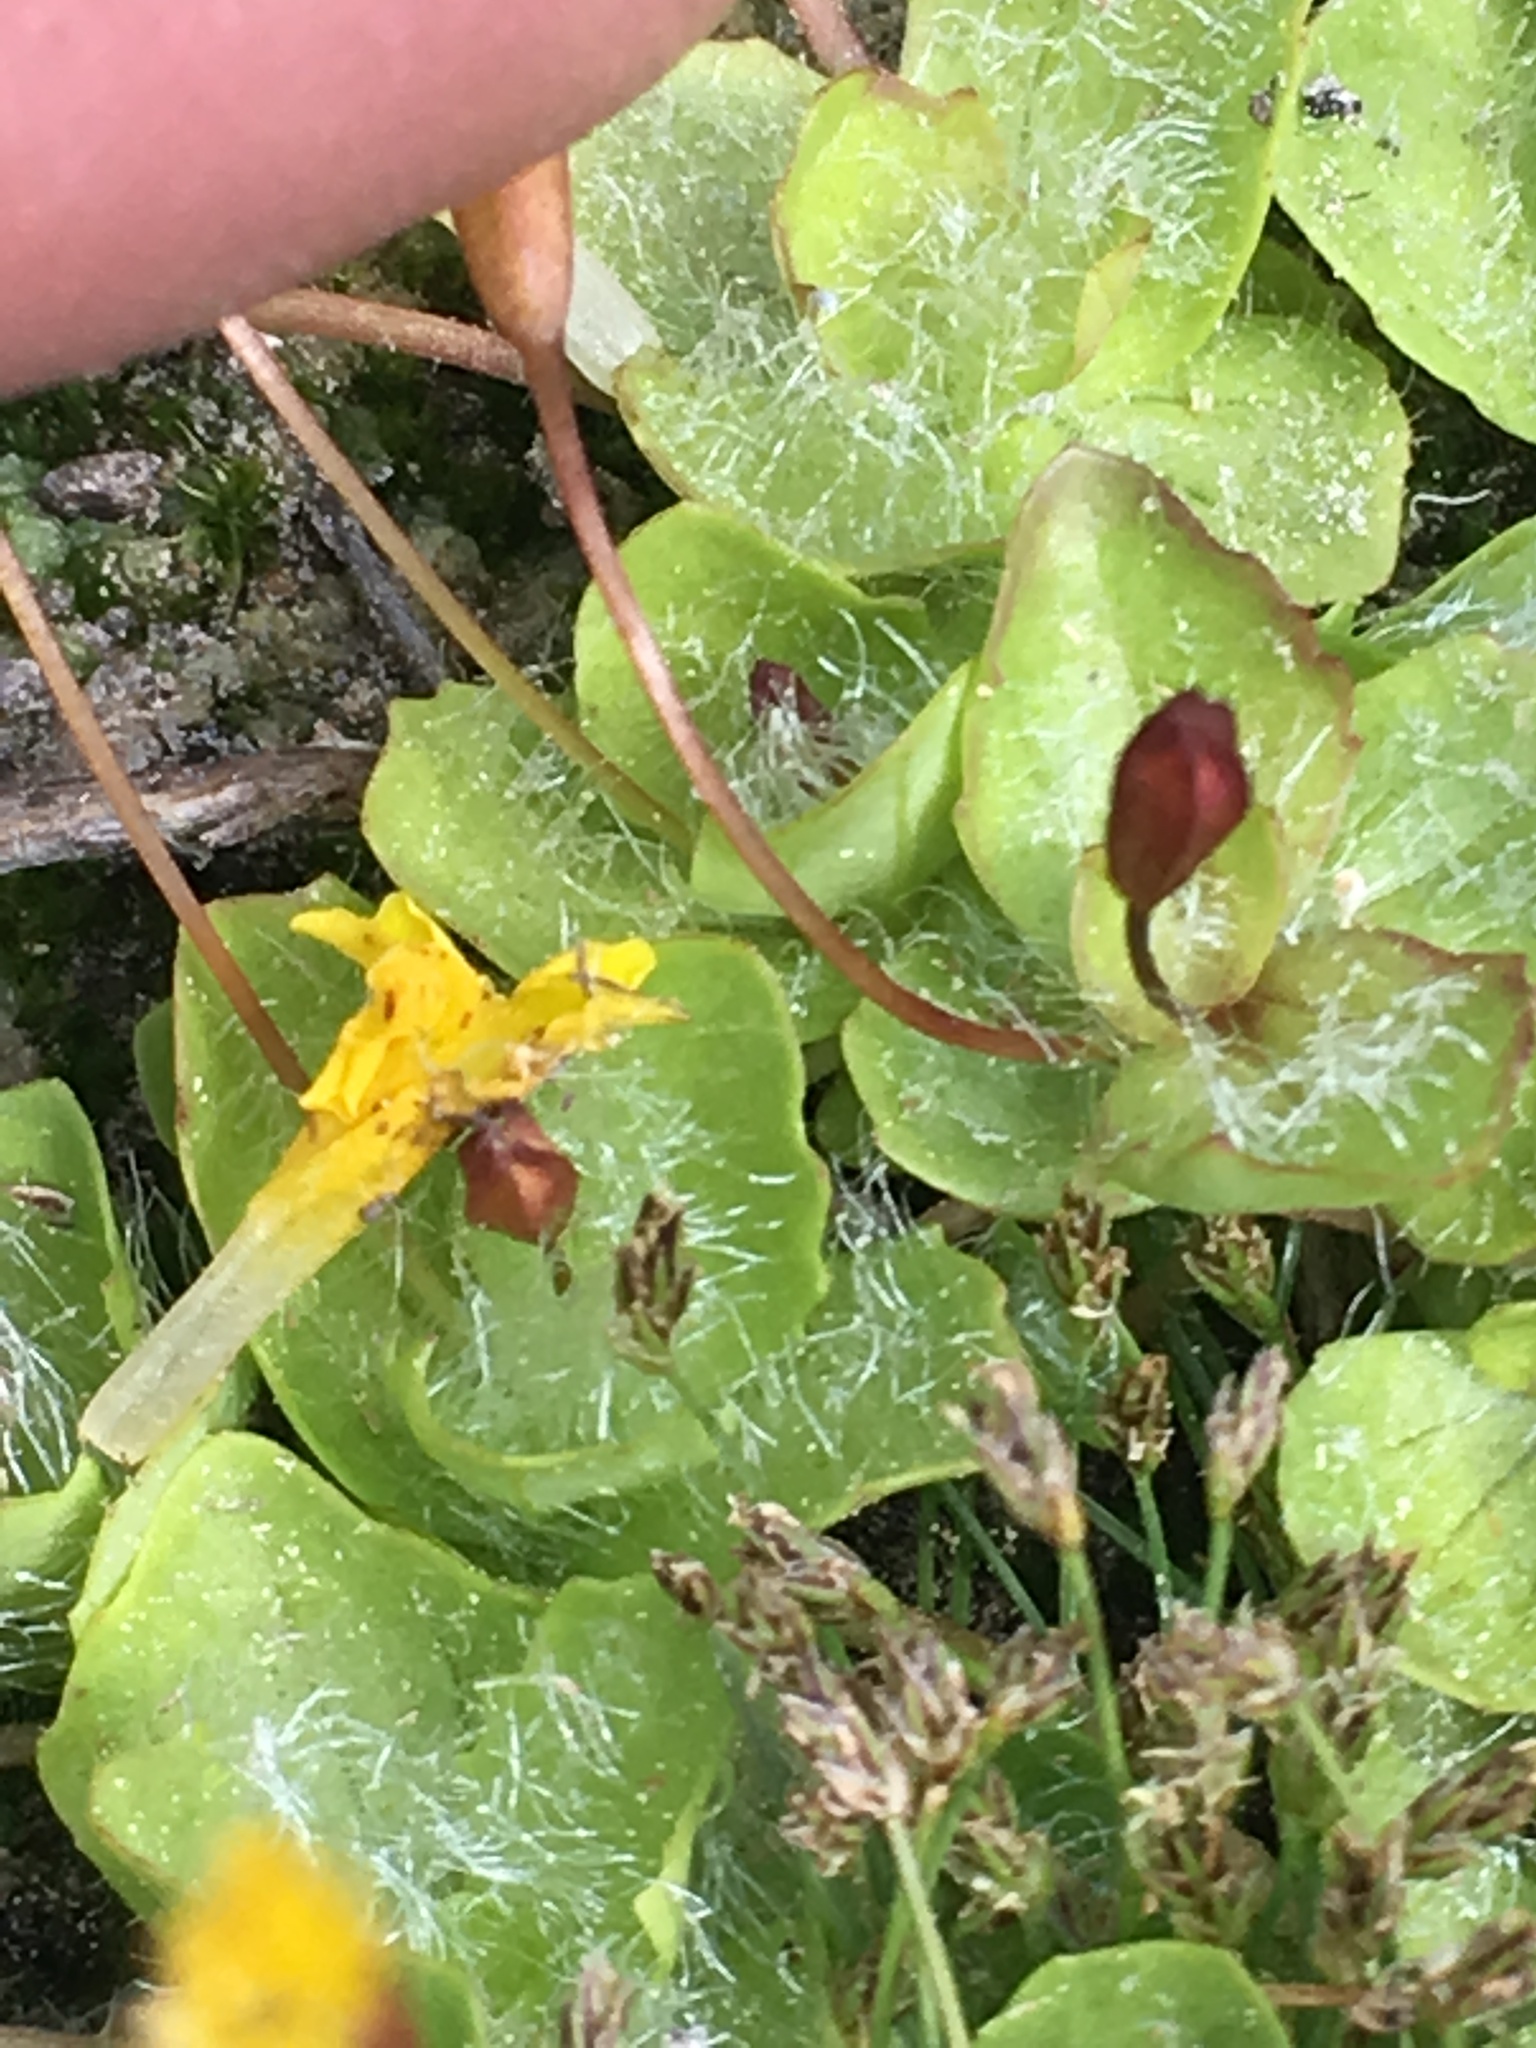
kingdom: Plantae
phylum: Tracheophyta
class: Magnoliopsida
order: Lamiales
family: Phrymaceae
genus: Erythranthe
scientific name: Erythranthe primuloides
